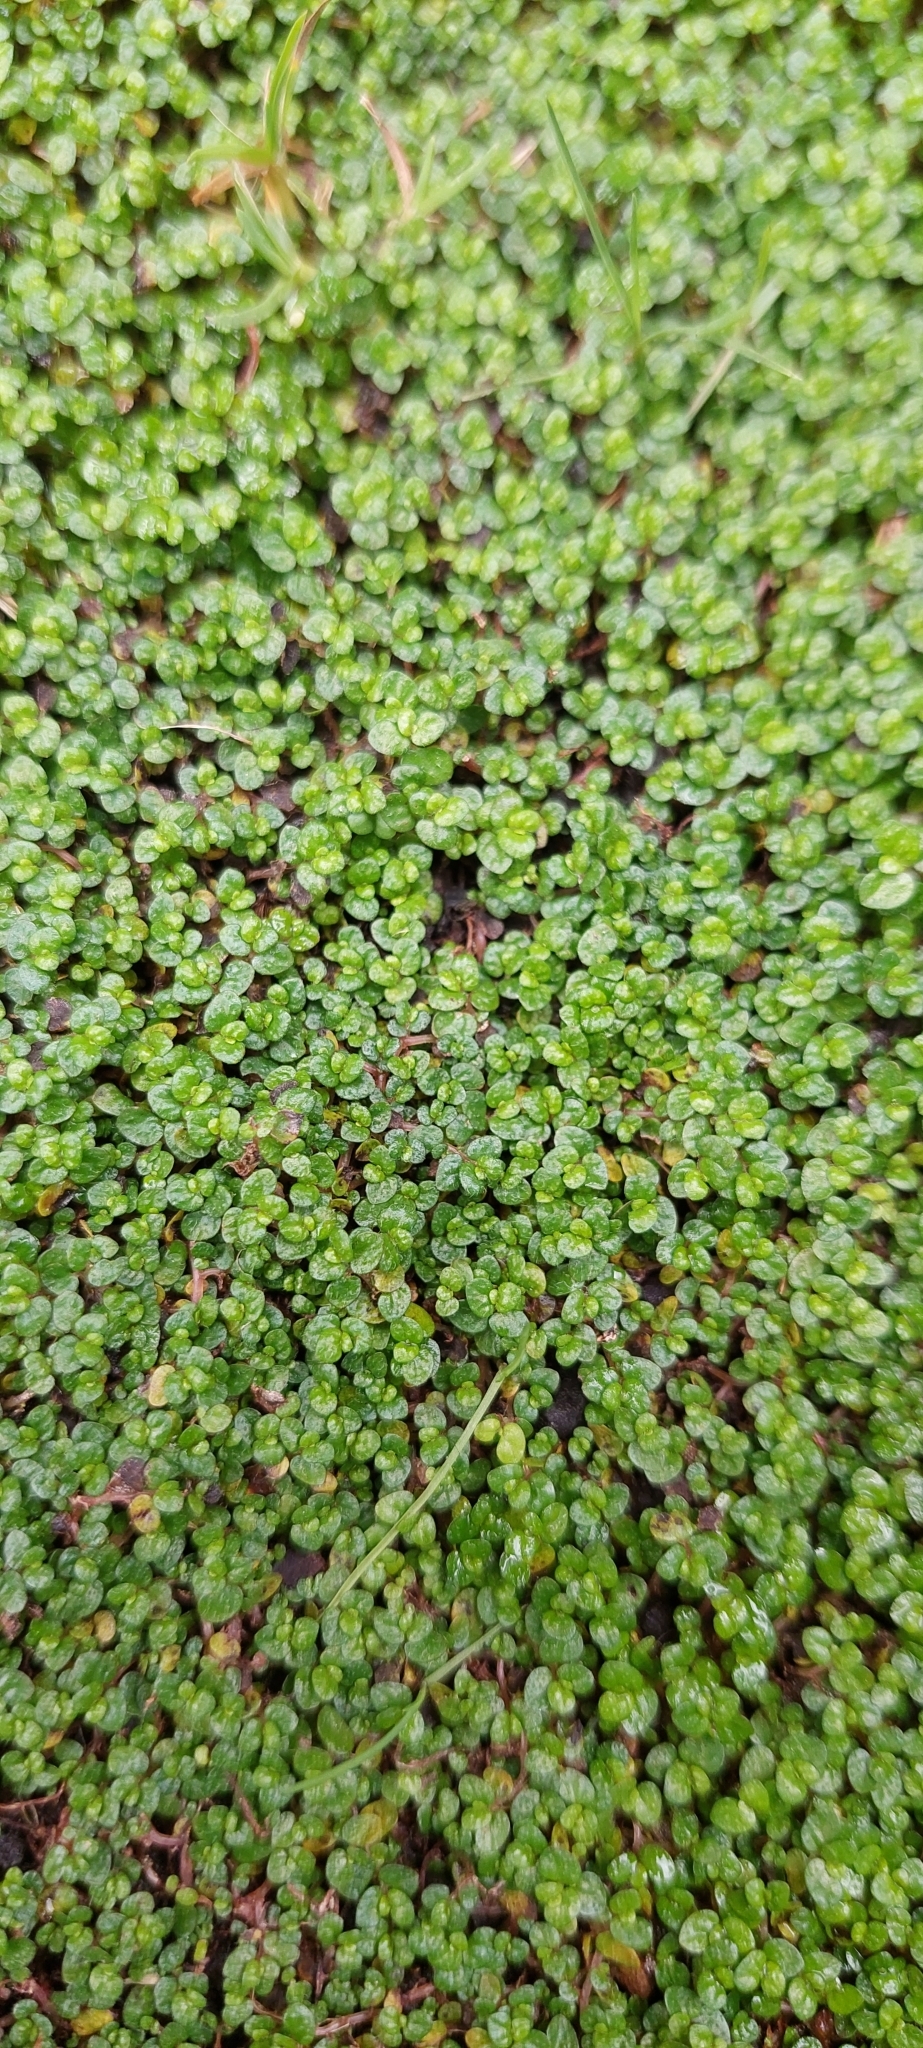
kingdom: Plantae
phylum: Tracheophyta
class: Magnoliopsida
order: Rosales
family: Urticaceae
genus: Soleirolia
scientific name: Soleirolia soleirolii
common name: Mind-your-own-business
